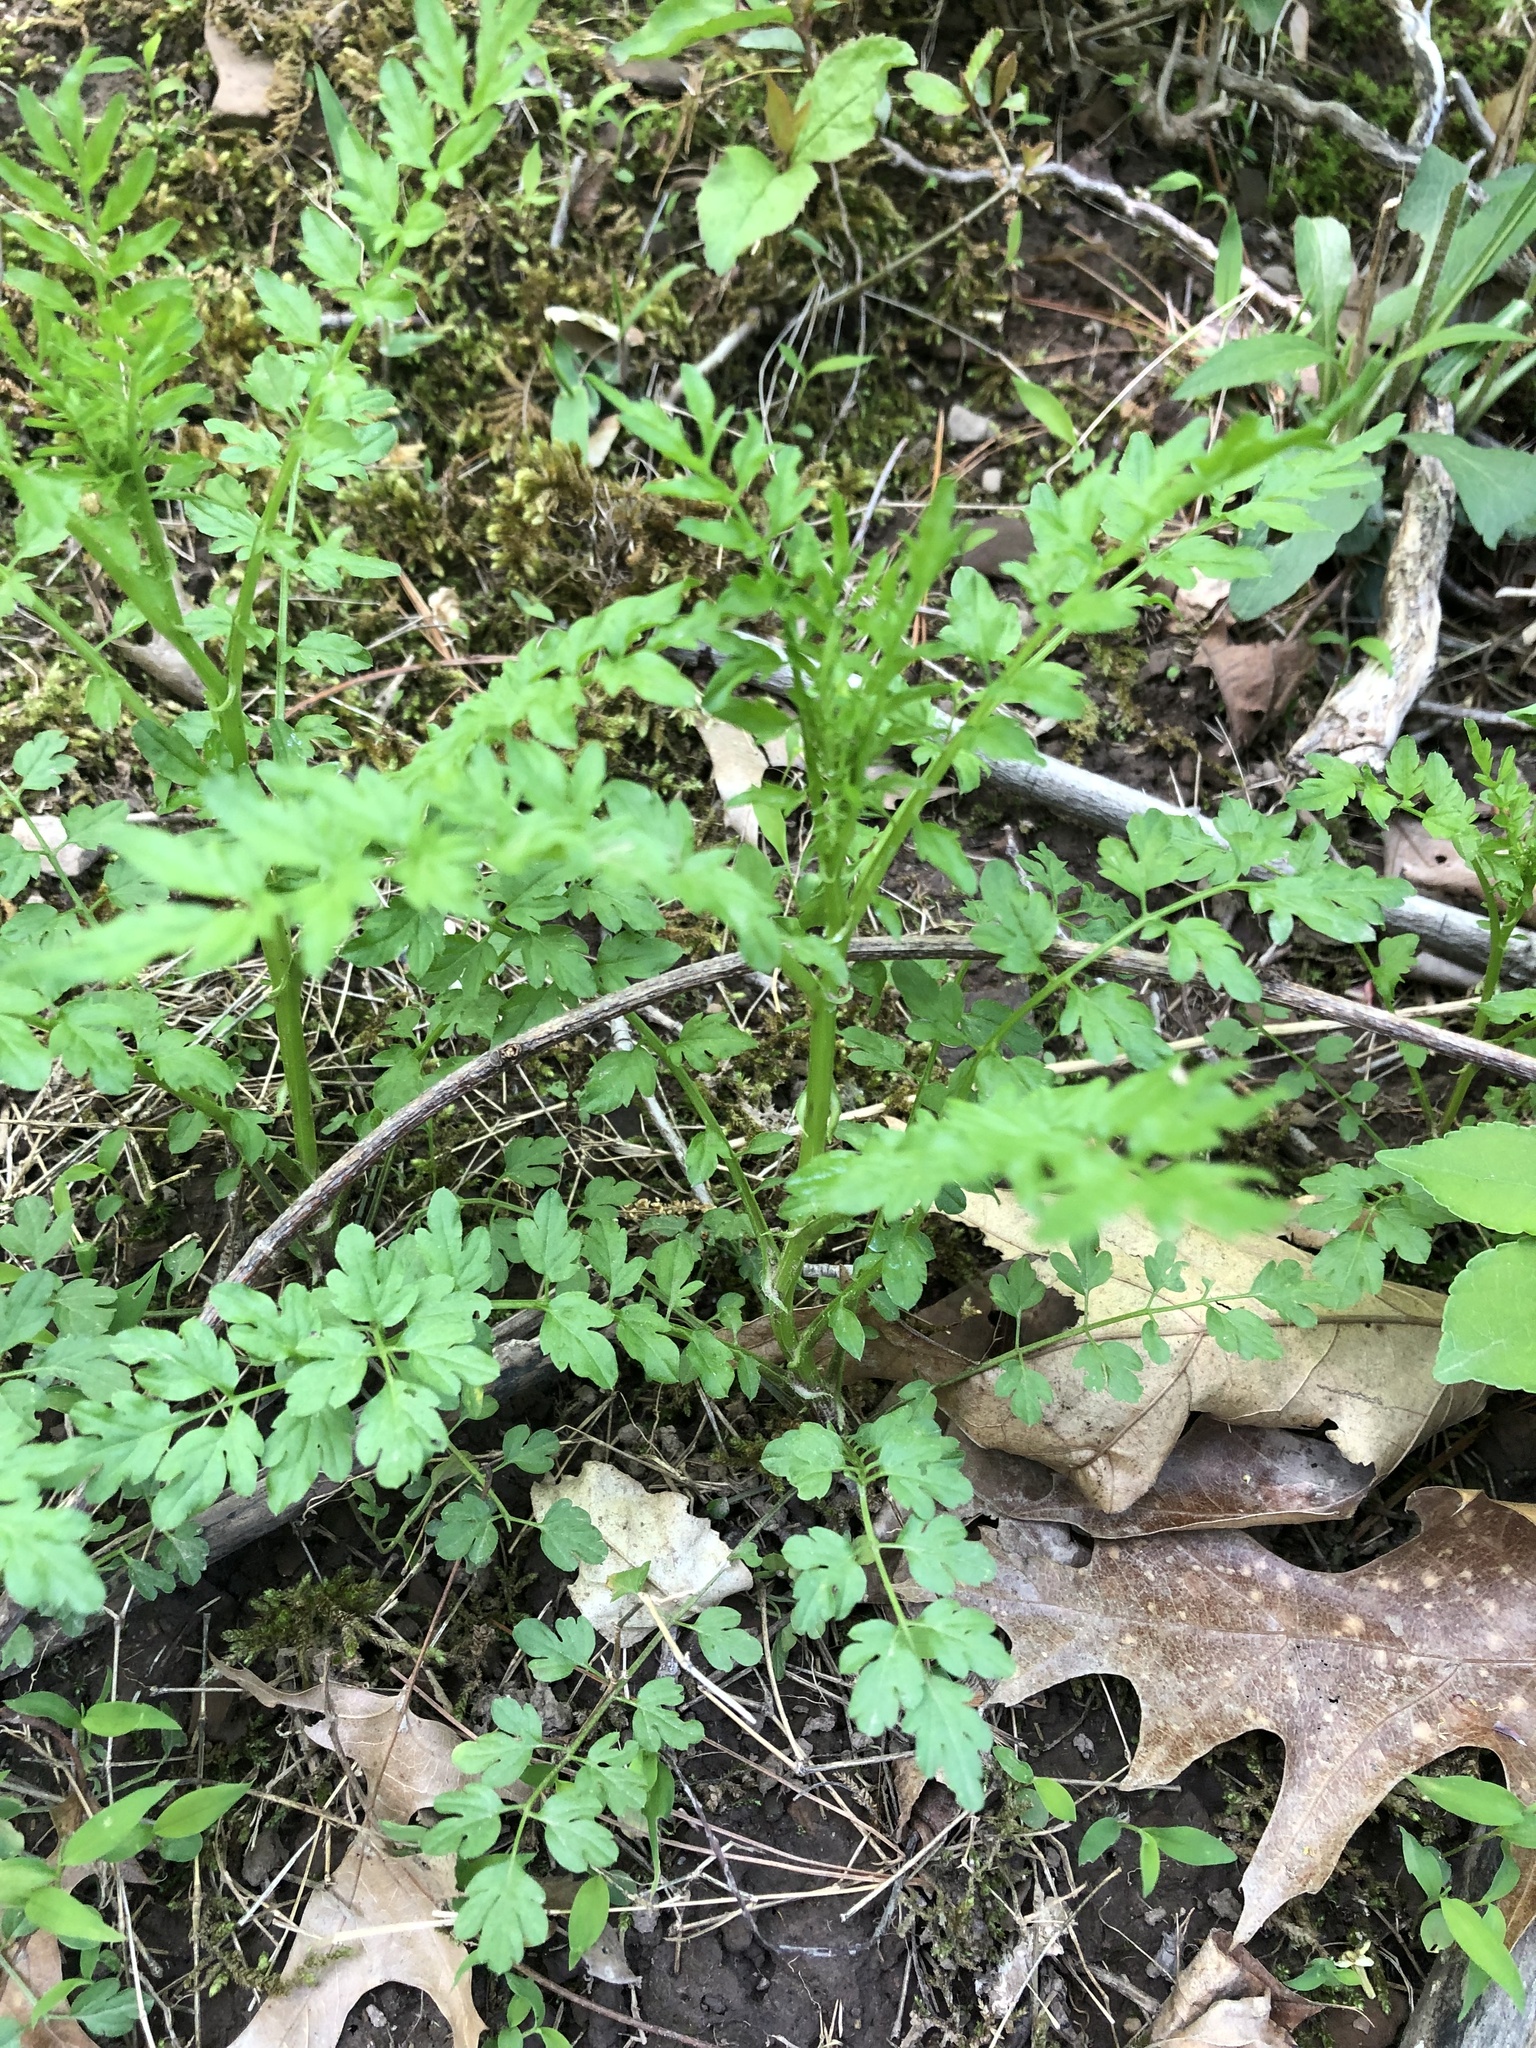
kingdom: Plantae
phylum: Tracheophyta
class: Magnoliopsida
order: Brassicales
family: Brassicaceae
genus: Cardamine
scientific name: Cardamine impatiens
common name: Narrow-leaved bitter-cress
